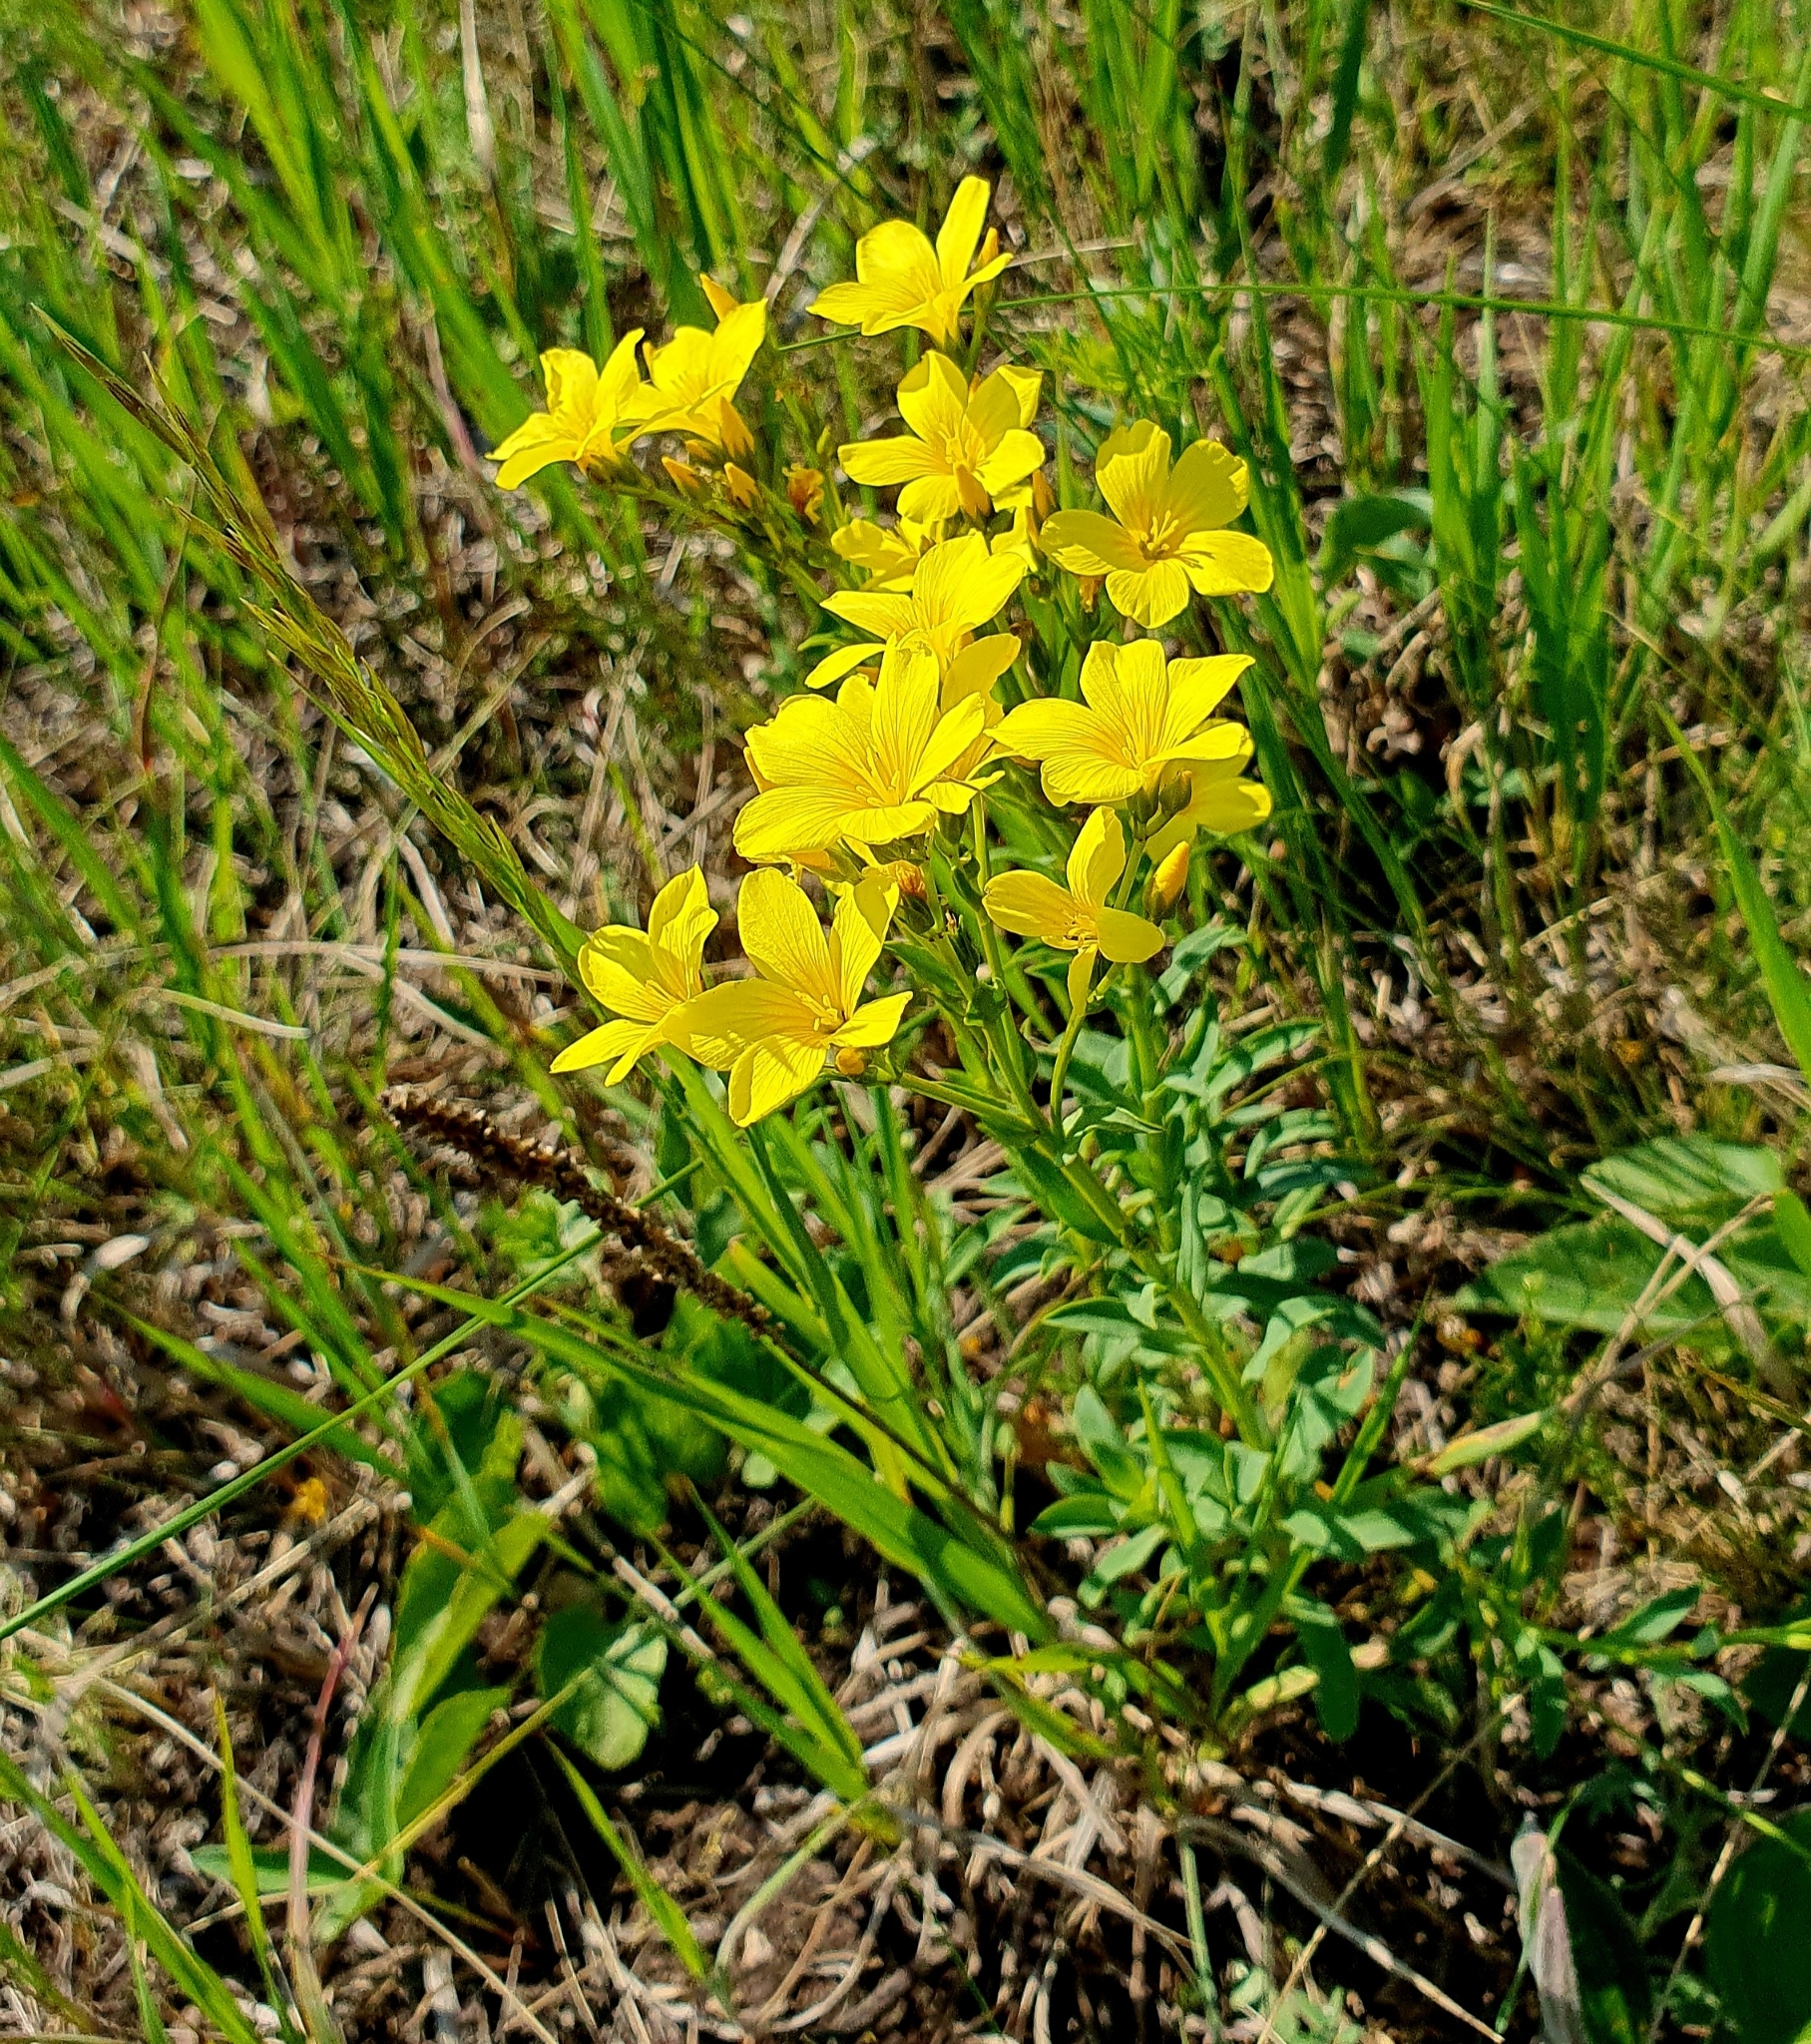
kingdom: Plantae
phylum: Tracheophyta
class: Magnoliopsida
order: Malpighiales
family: Linaceae
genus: Linum
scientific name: Linum flavum
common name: Yellow flax
